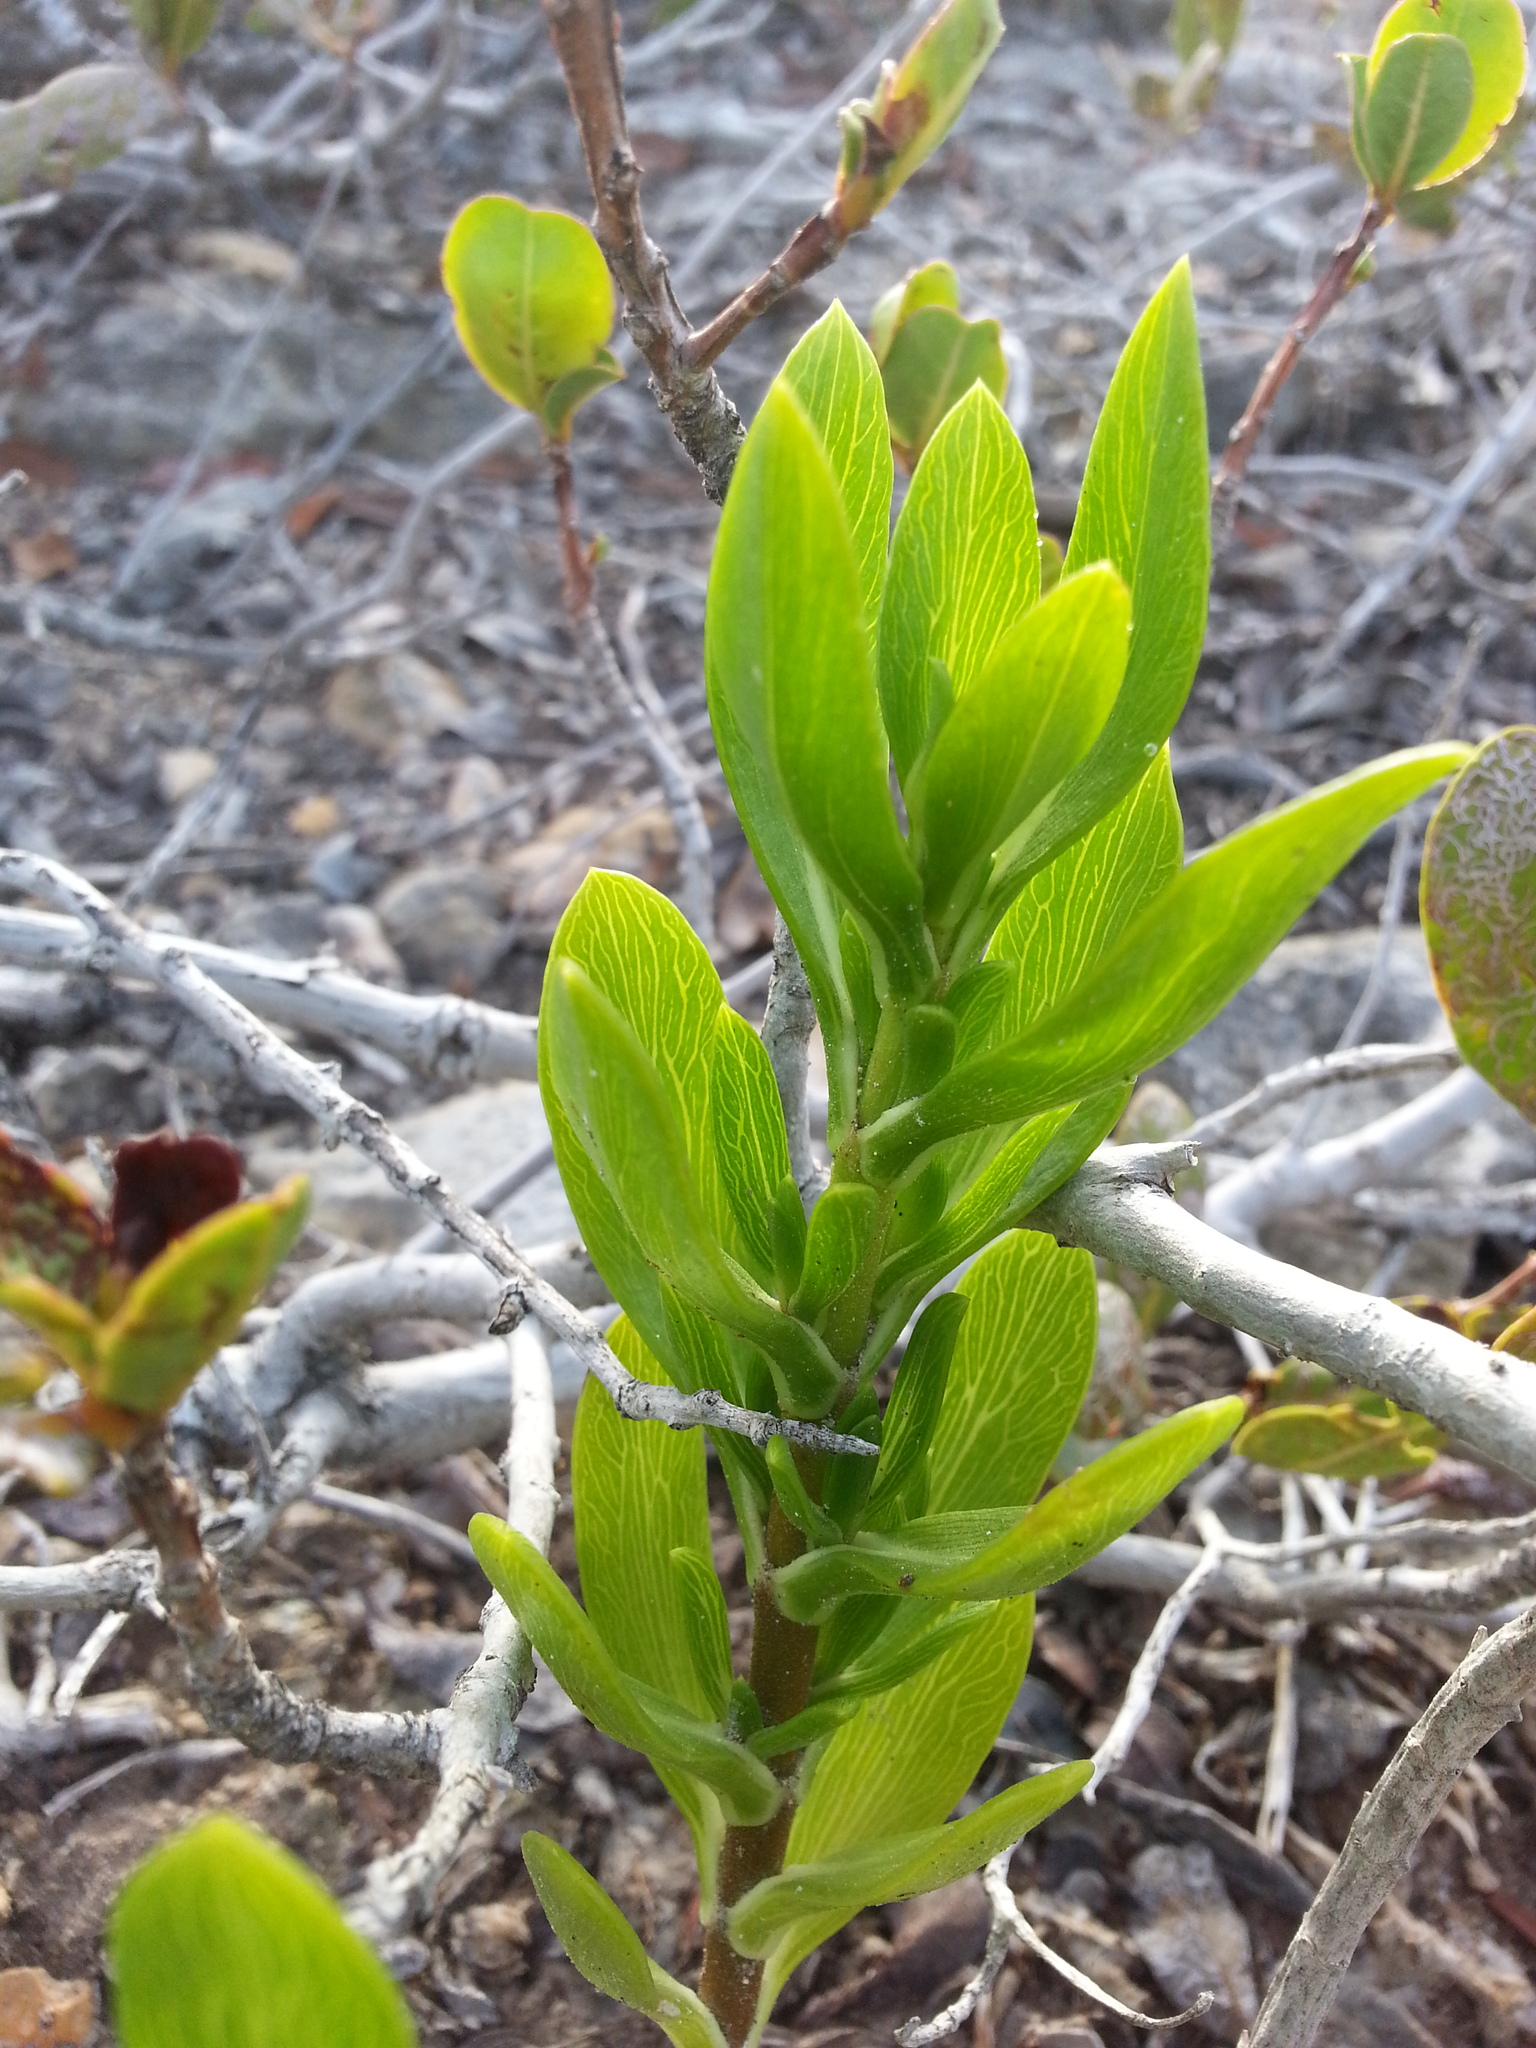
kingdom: Plantae
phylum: Tracheophyta
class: Magnoliopsida
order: Asterales
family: Asteraceae
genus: Borrichia
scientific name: Borrichia arborescens
